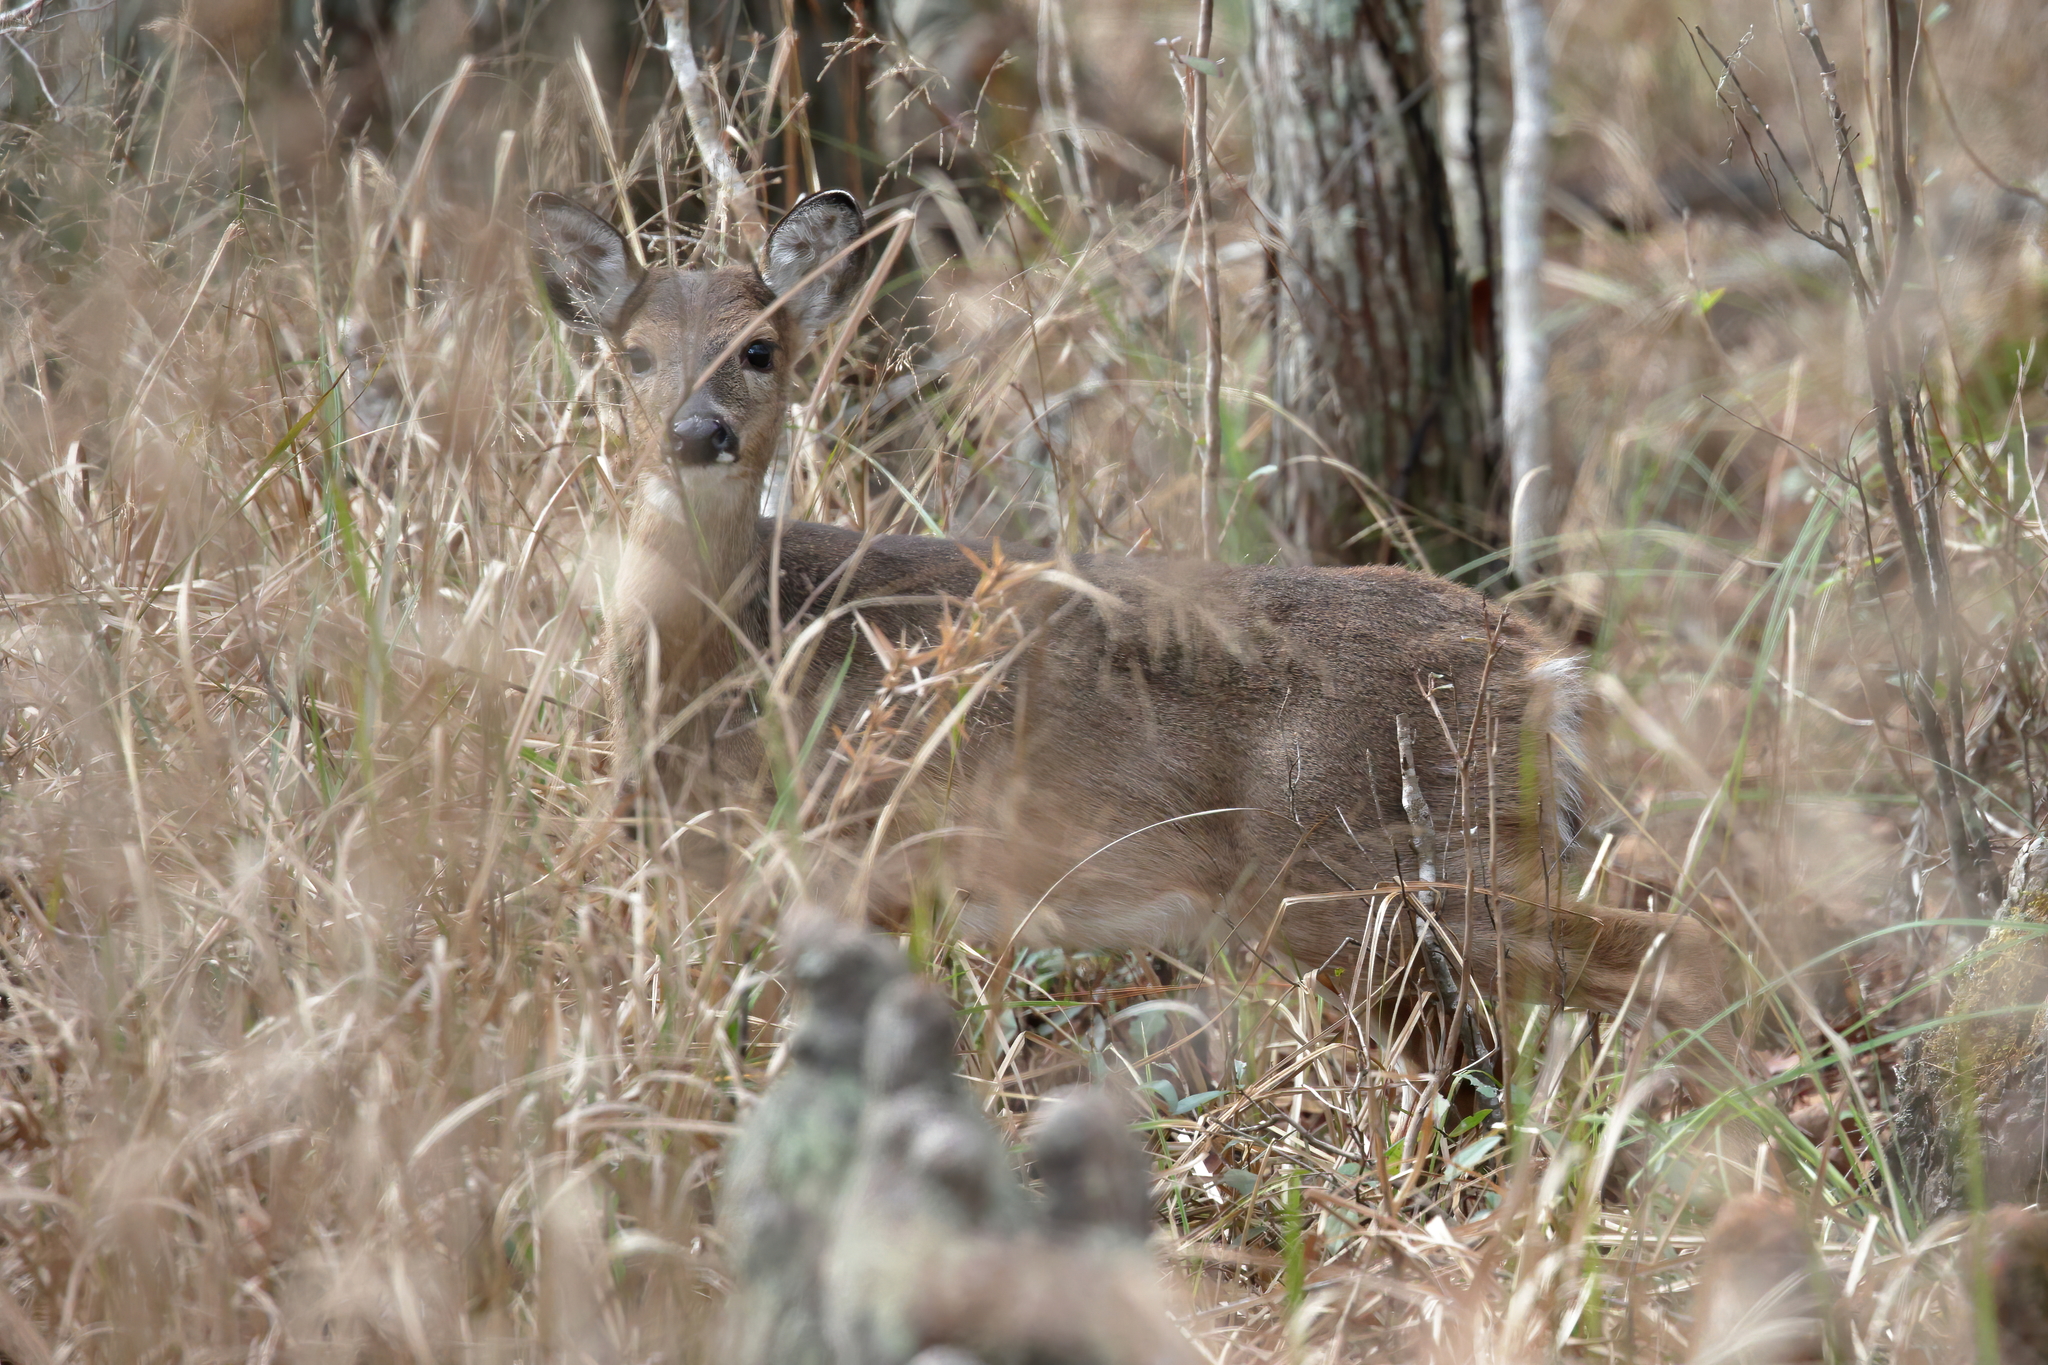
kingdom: Animalia
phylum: Chordata
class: Mammalia
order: Artiodactyla
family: Cervidae
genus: Odocoileus
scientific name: Odocoileus virginianus
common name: White-tailed deer
